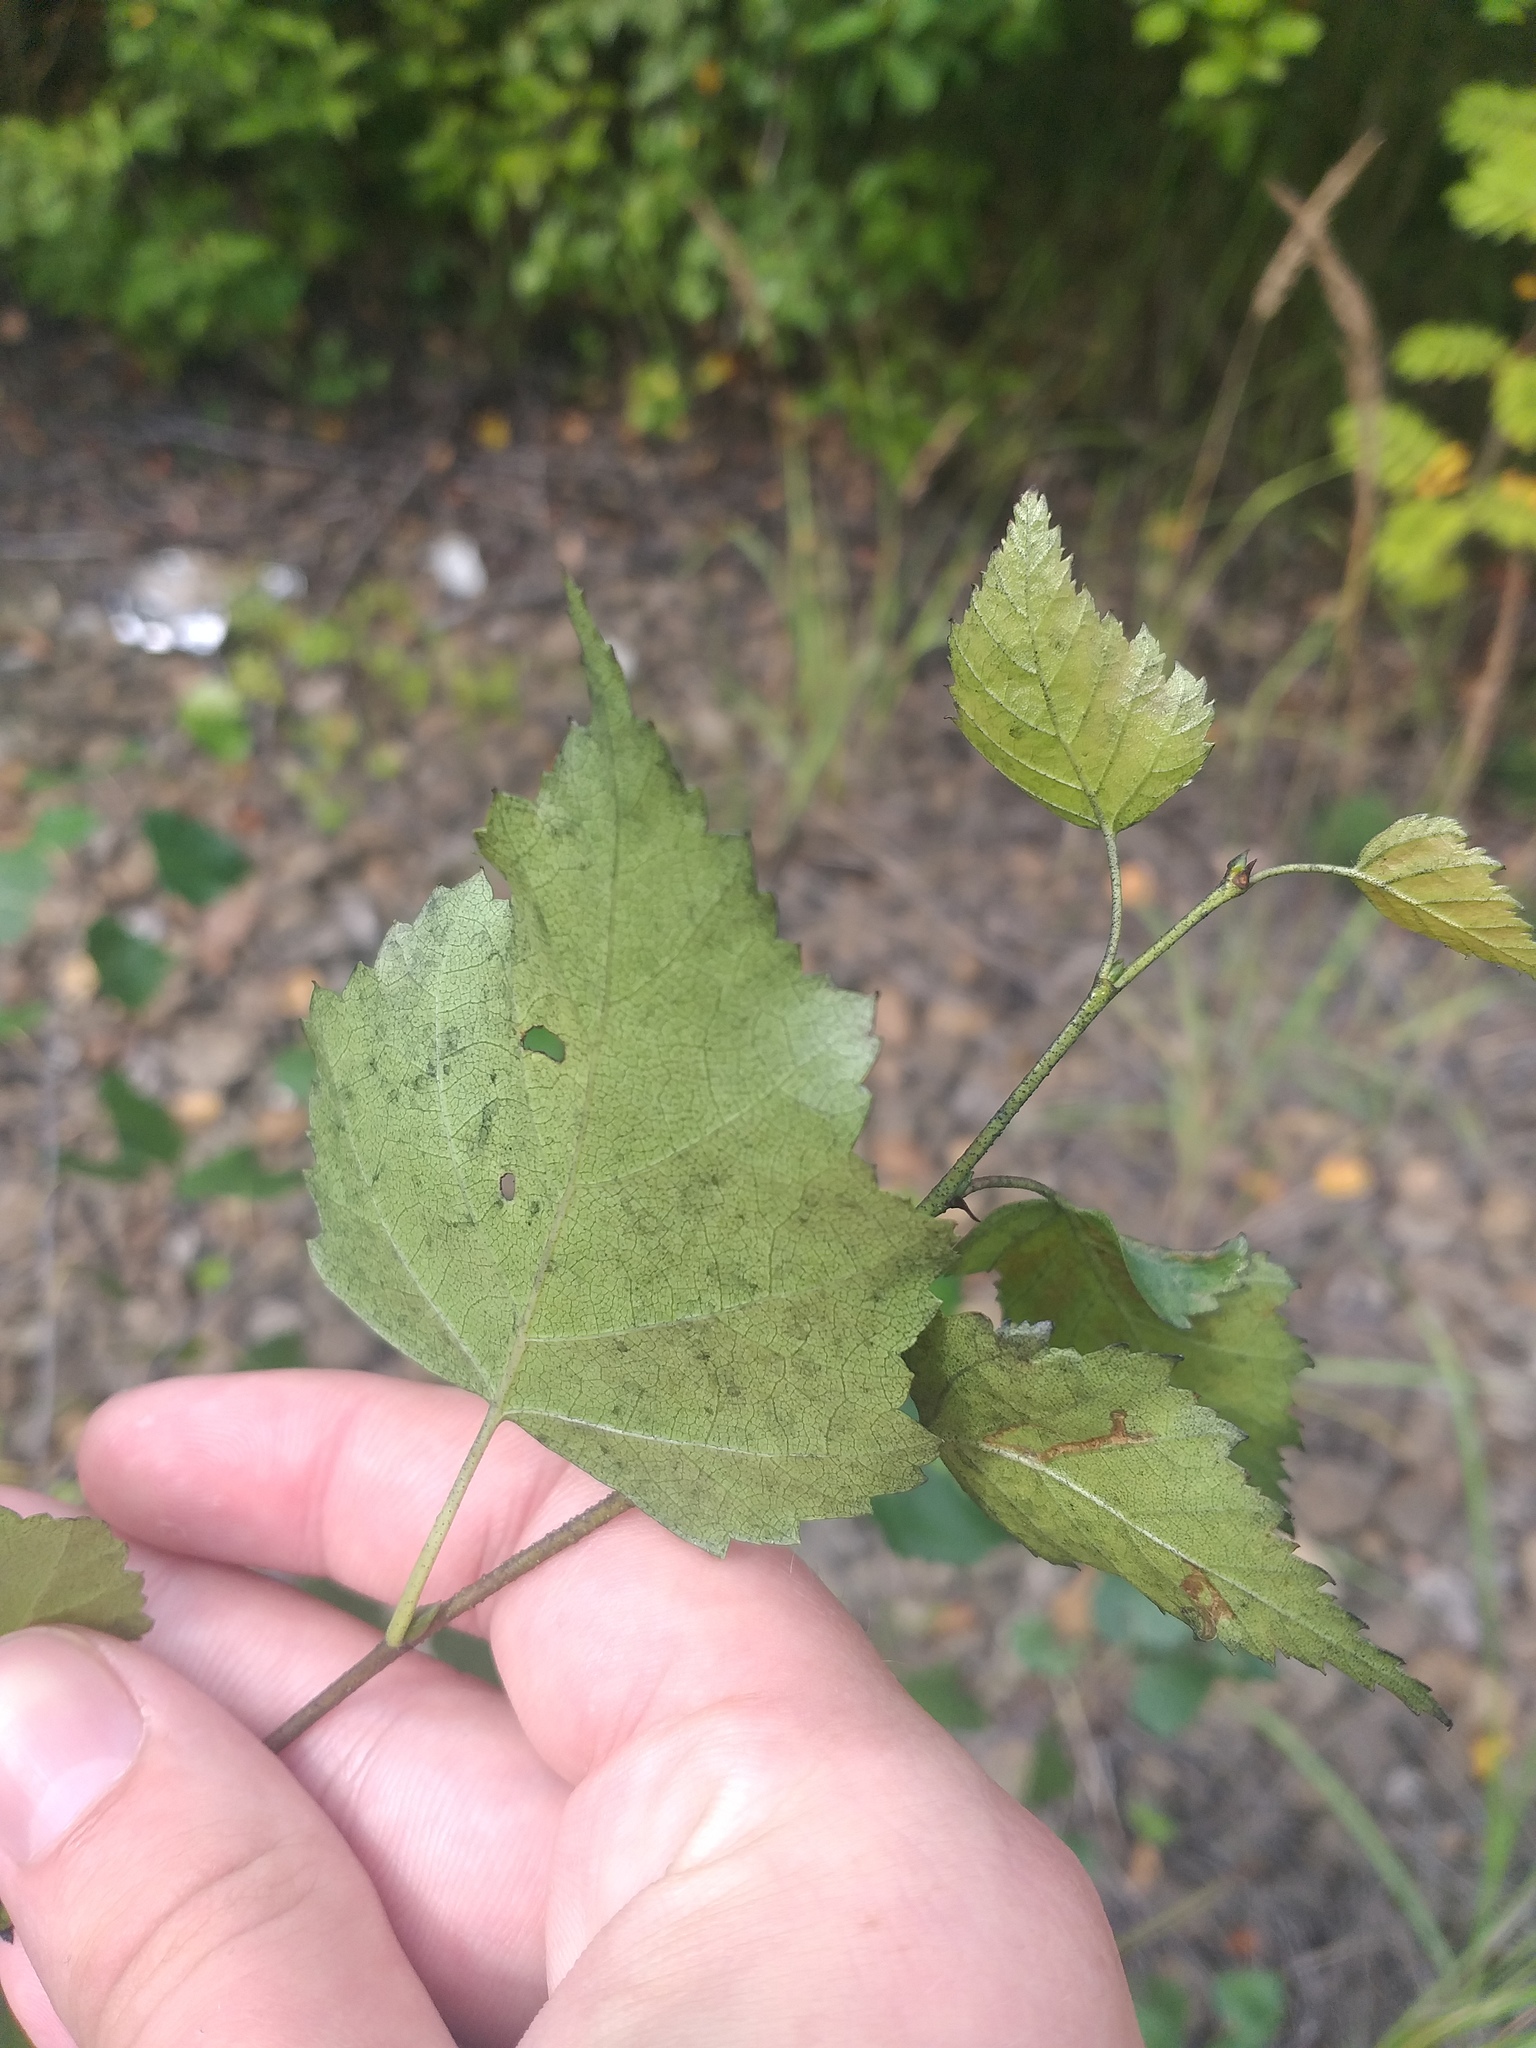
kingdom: Plantae
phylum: Tracheophyta
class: Magnoliopsida
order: Fagales
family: Betulaceae
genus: Betula
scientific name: Betula pendula
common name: Silver birch
